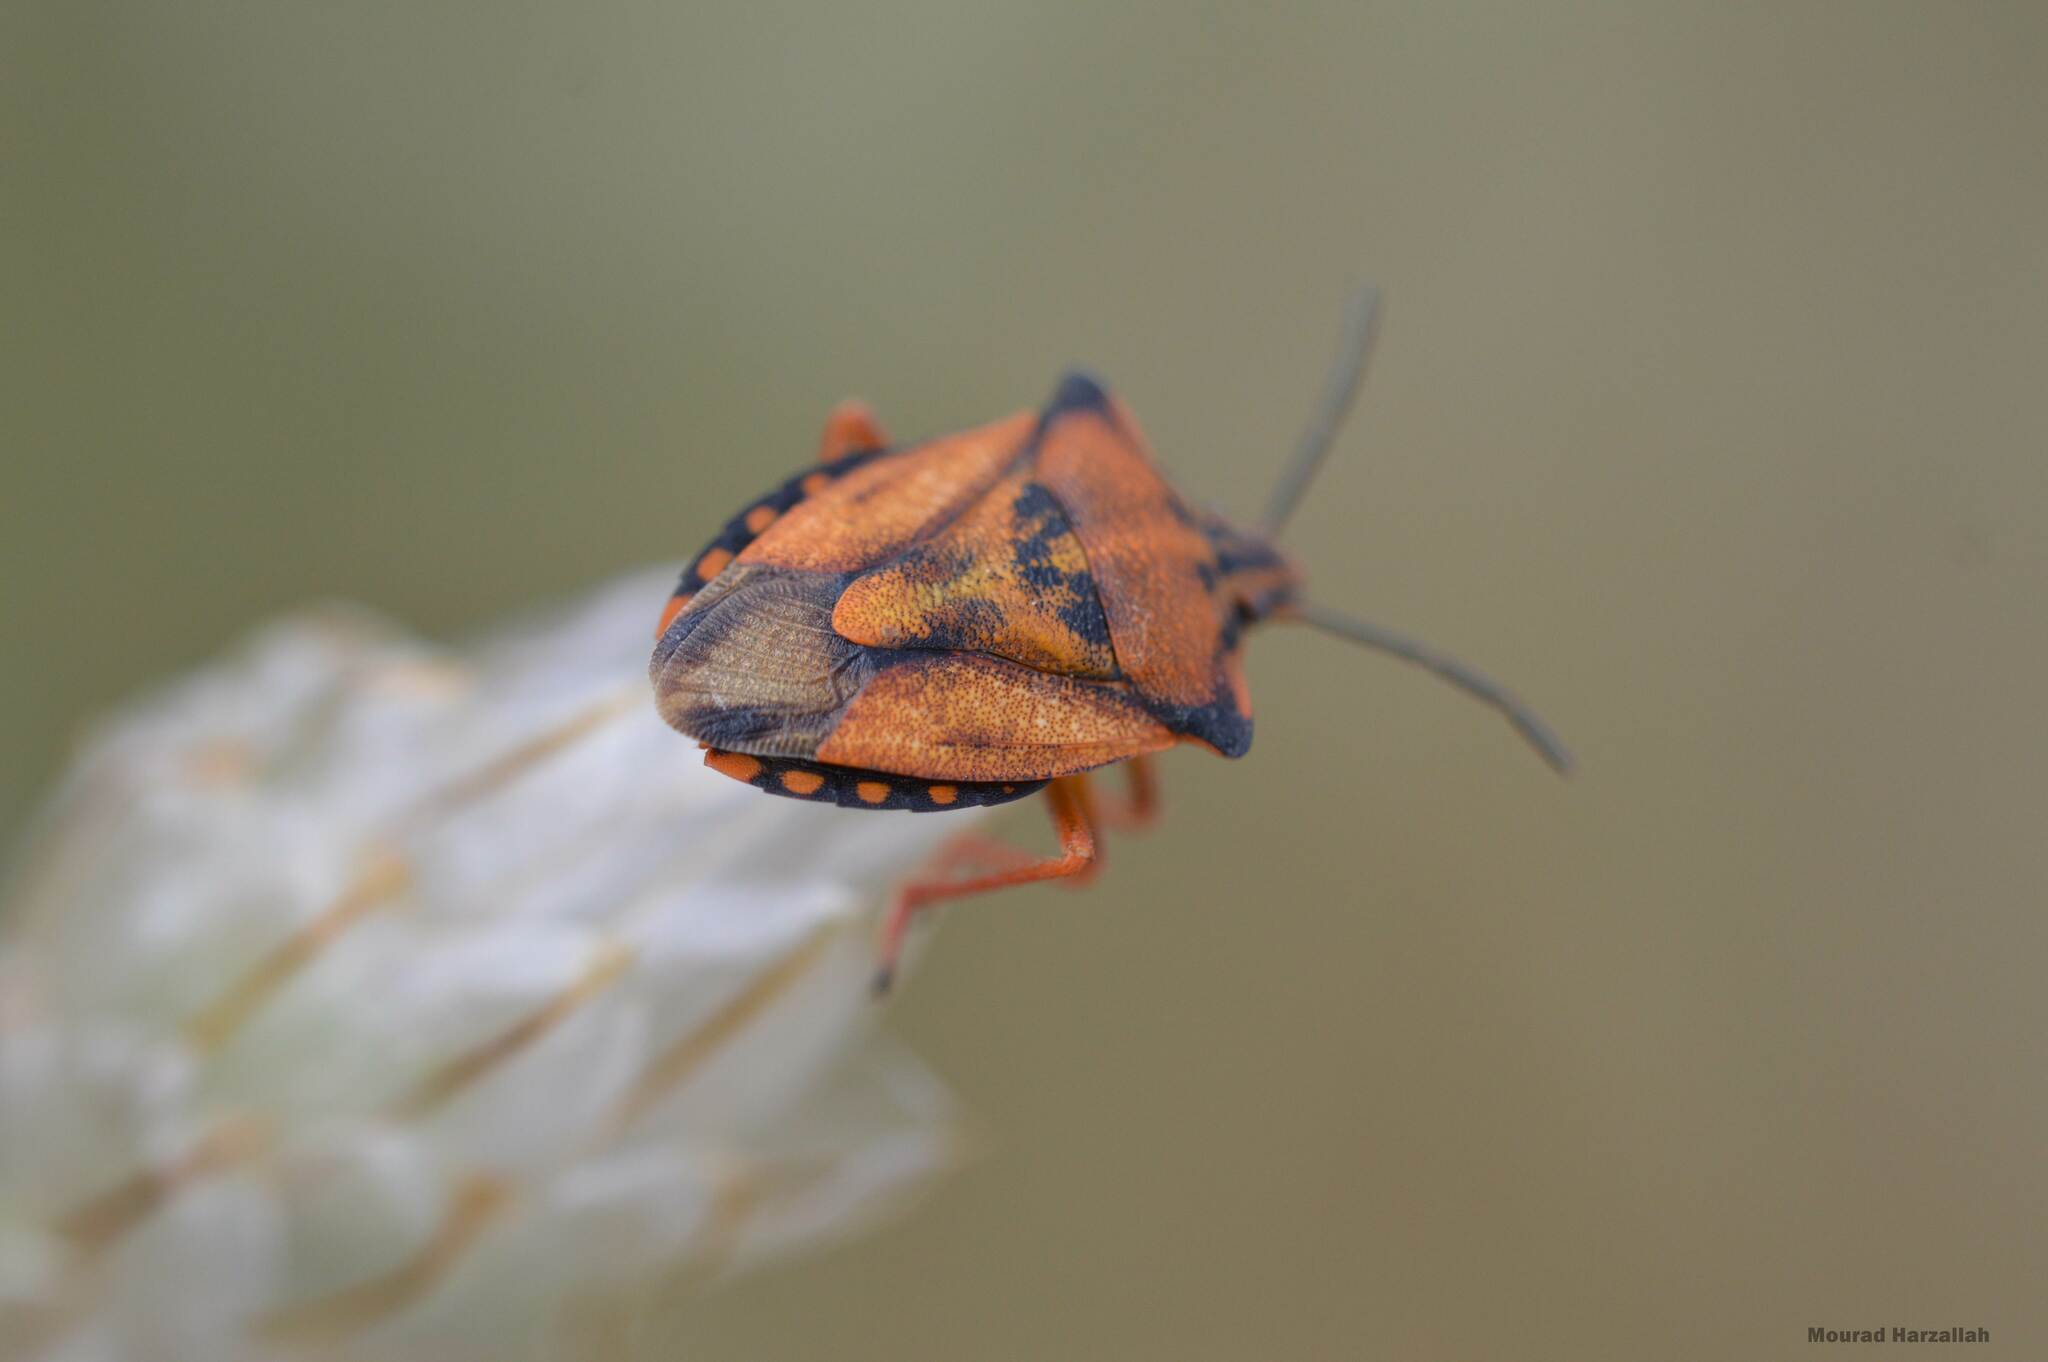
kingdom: Animalia
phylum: Arthropoda
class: Insecta
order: Hemiptera
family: Pentatomidae
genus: Carpocoris
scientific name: Carpocoris mediterraneus
